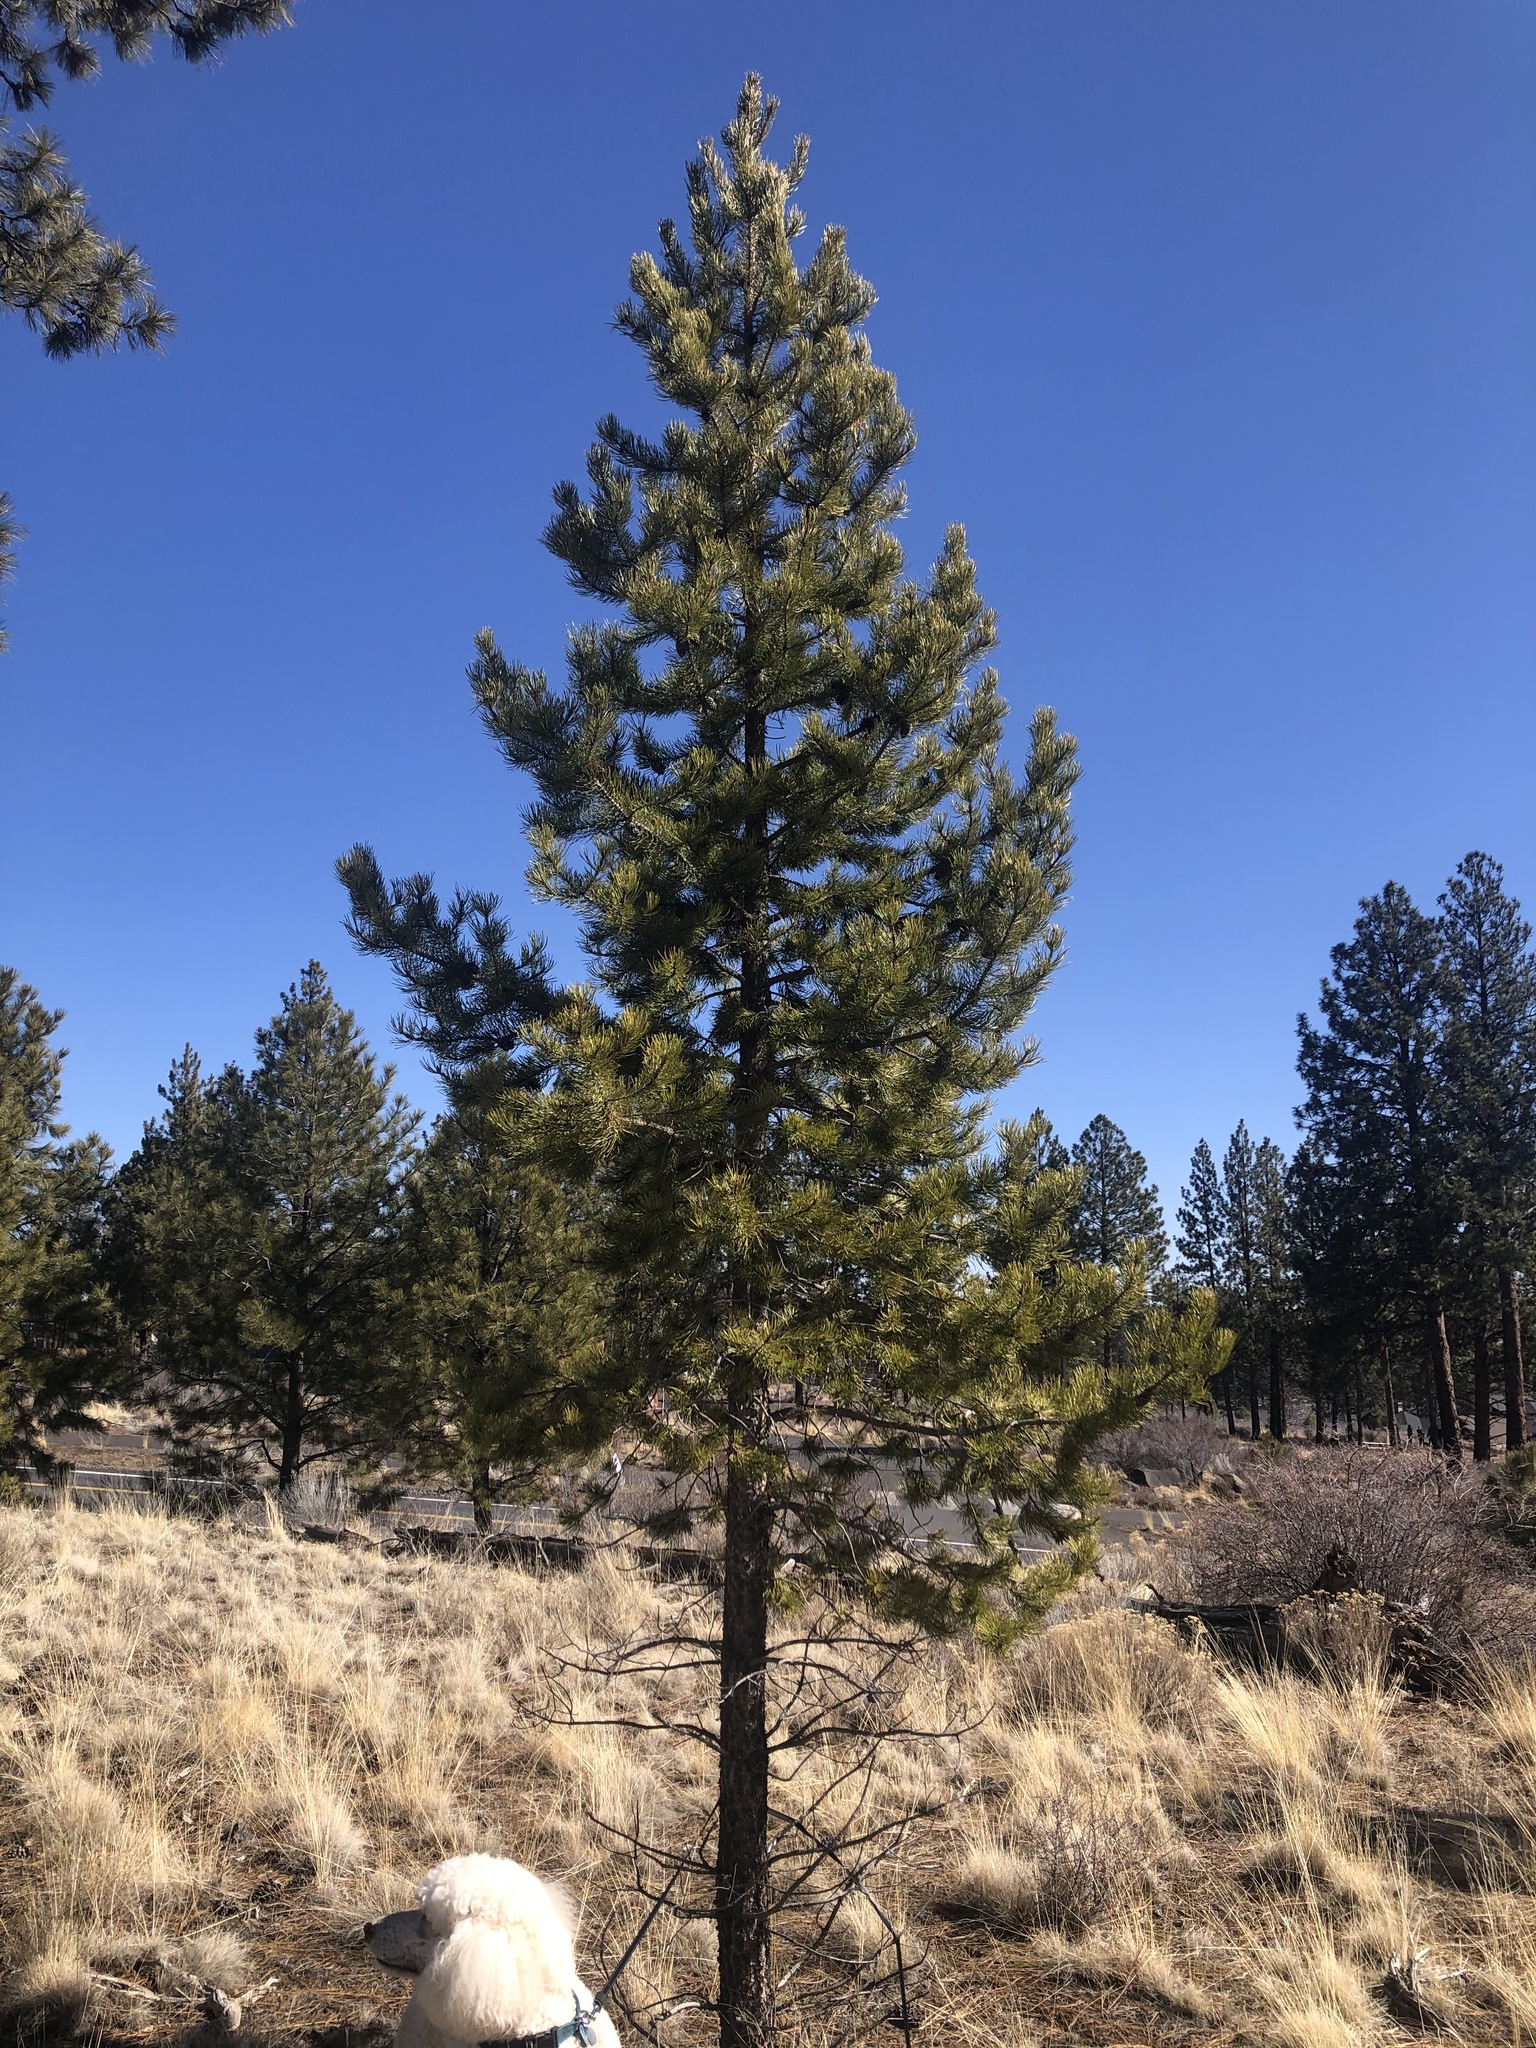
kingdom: Plantae
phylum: Tracheophyta
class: Pinopsida
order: Pinales
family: Pinaceae
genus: Pinus
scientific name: Pinus contorta
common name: Lodgepole pine
